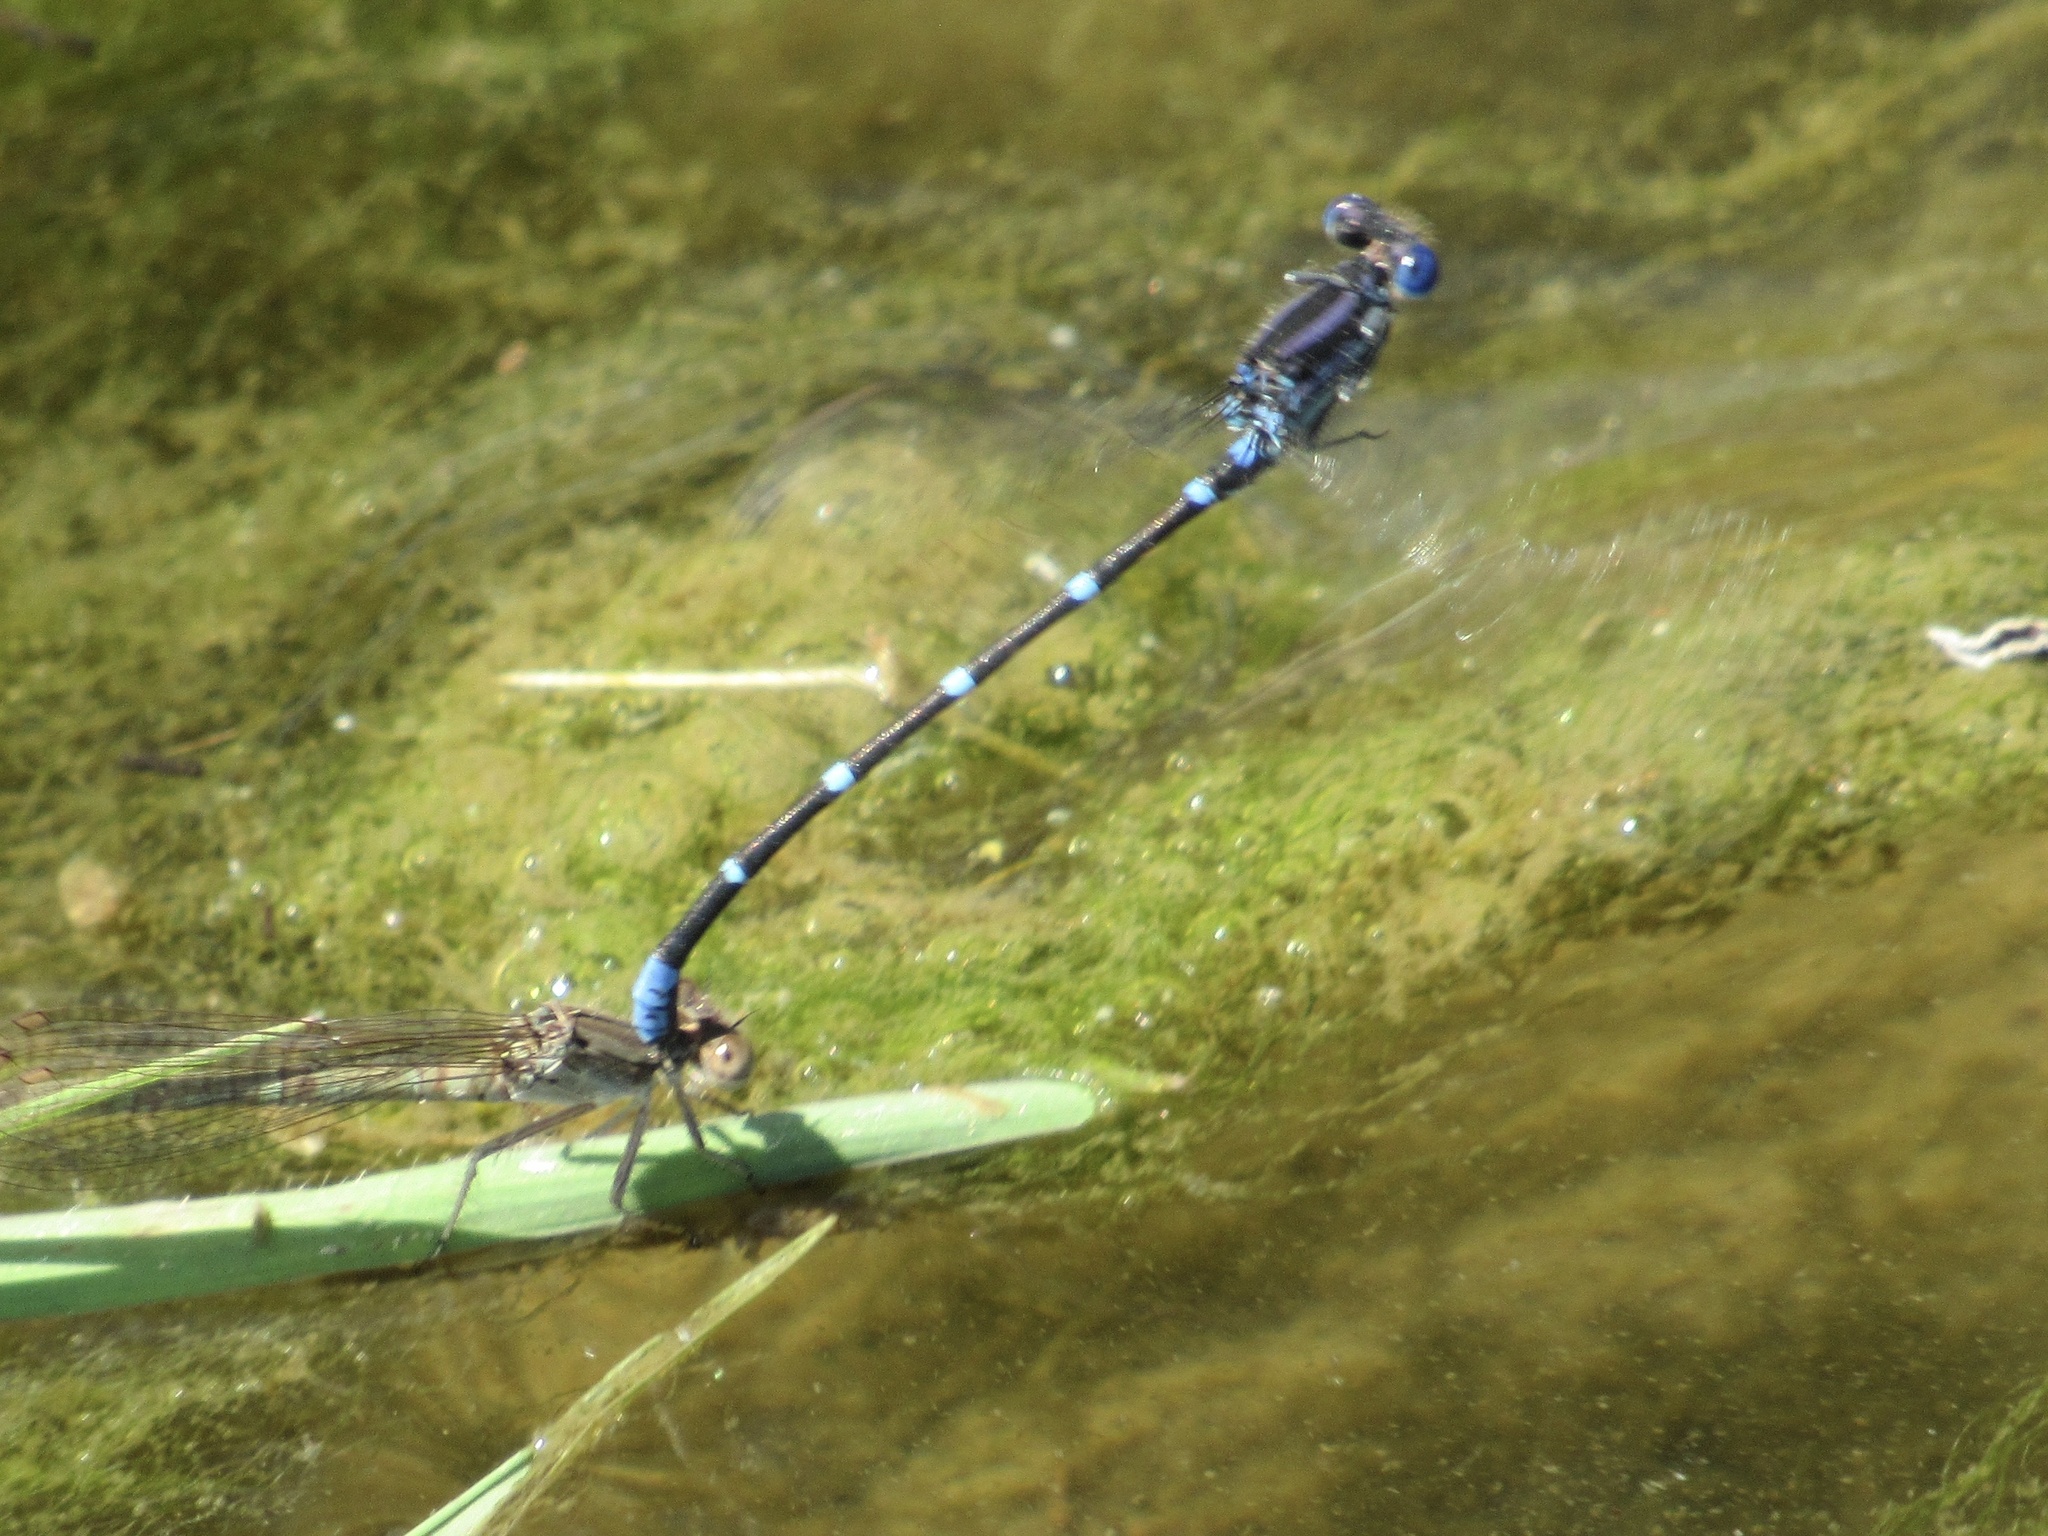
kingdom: Animalia
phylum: Arthropoda
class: Insecta
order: Odonata
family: Coenagrionidae
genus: Argia
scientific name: Argia sedula
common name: Blue-ringed dancer
